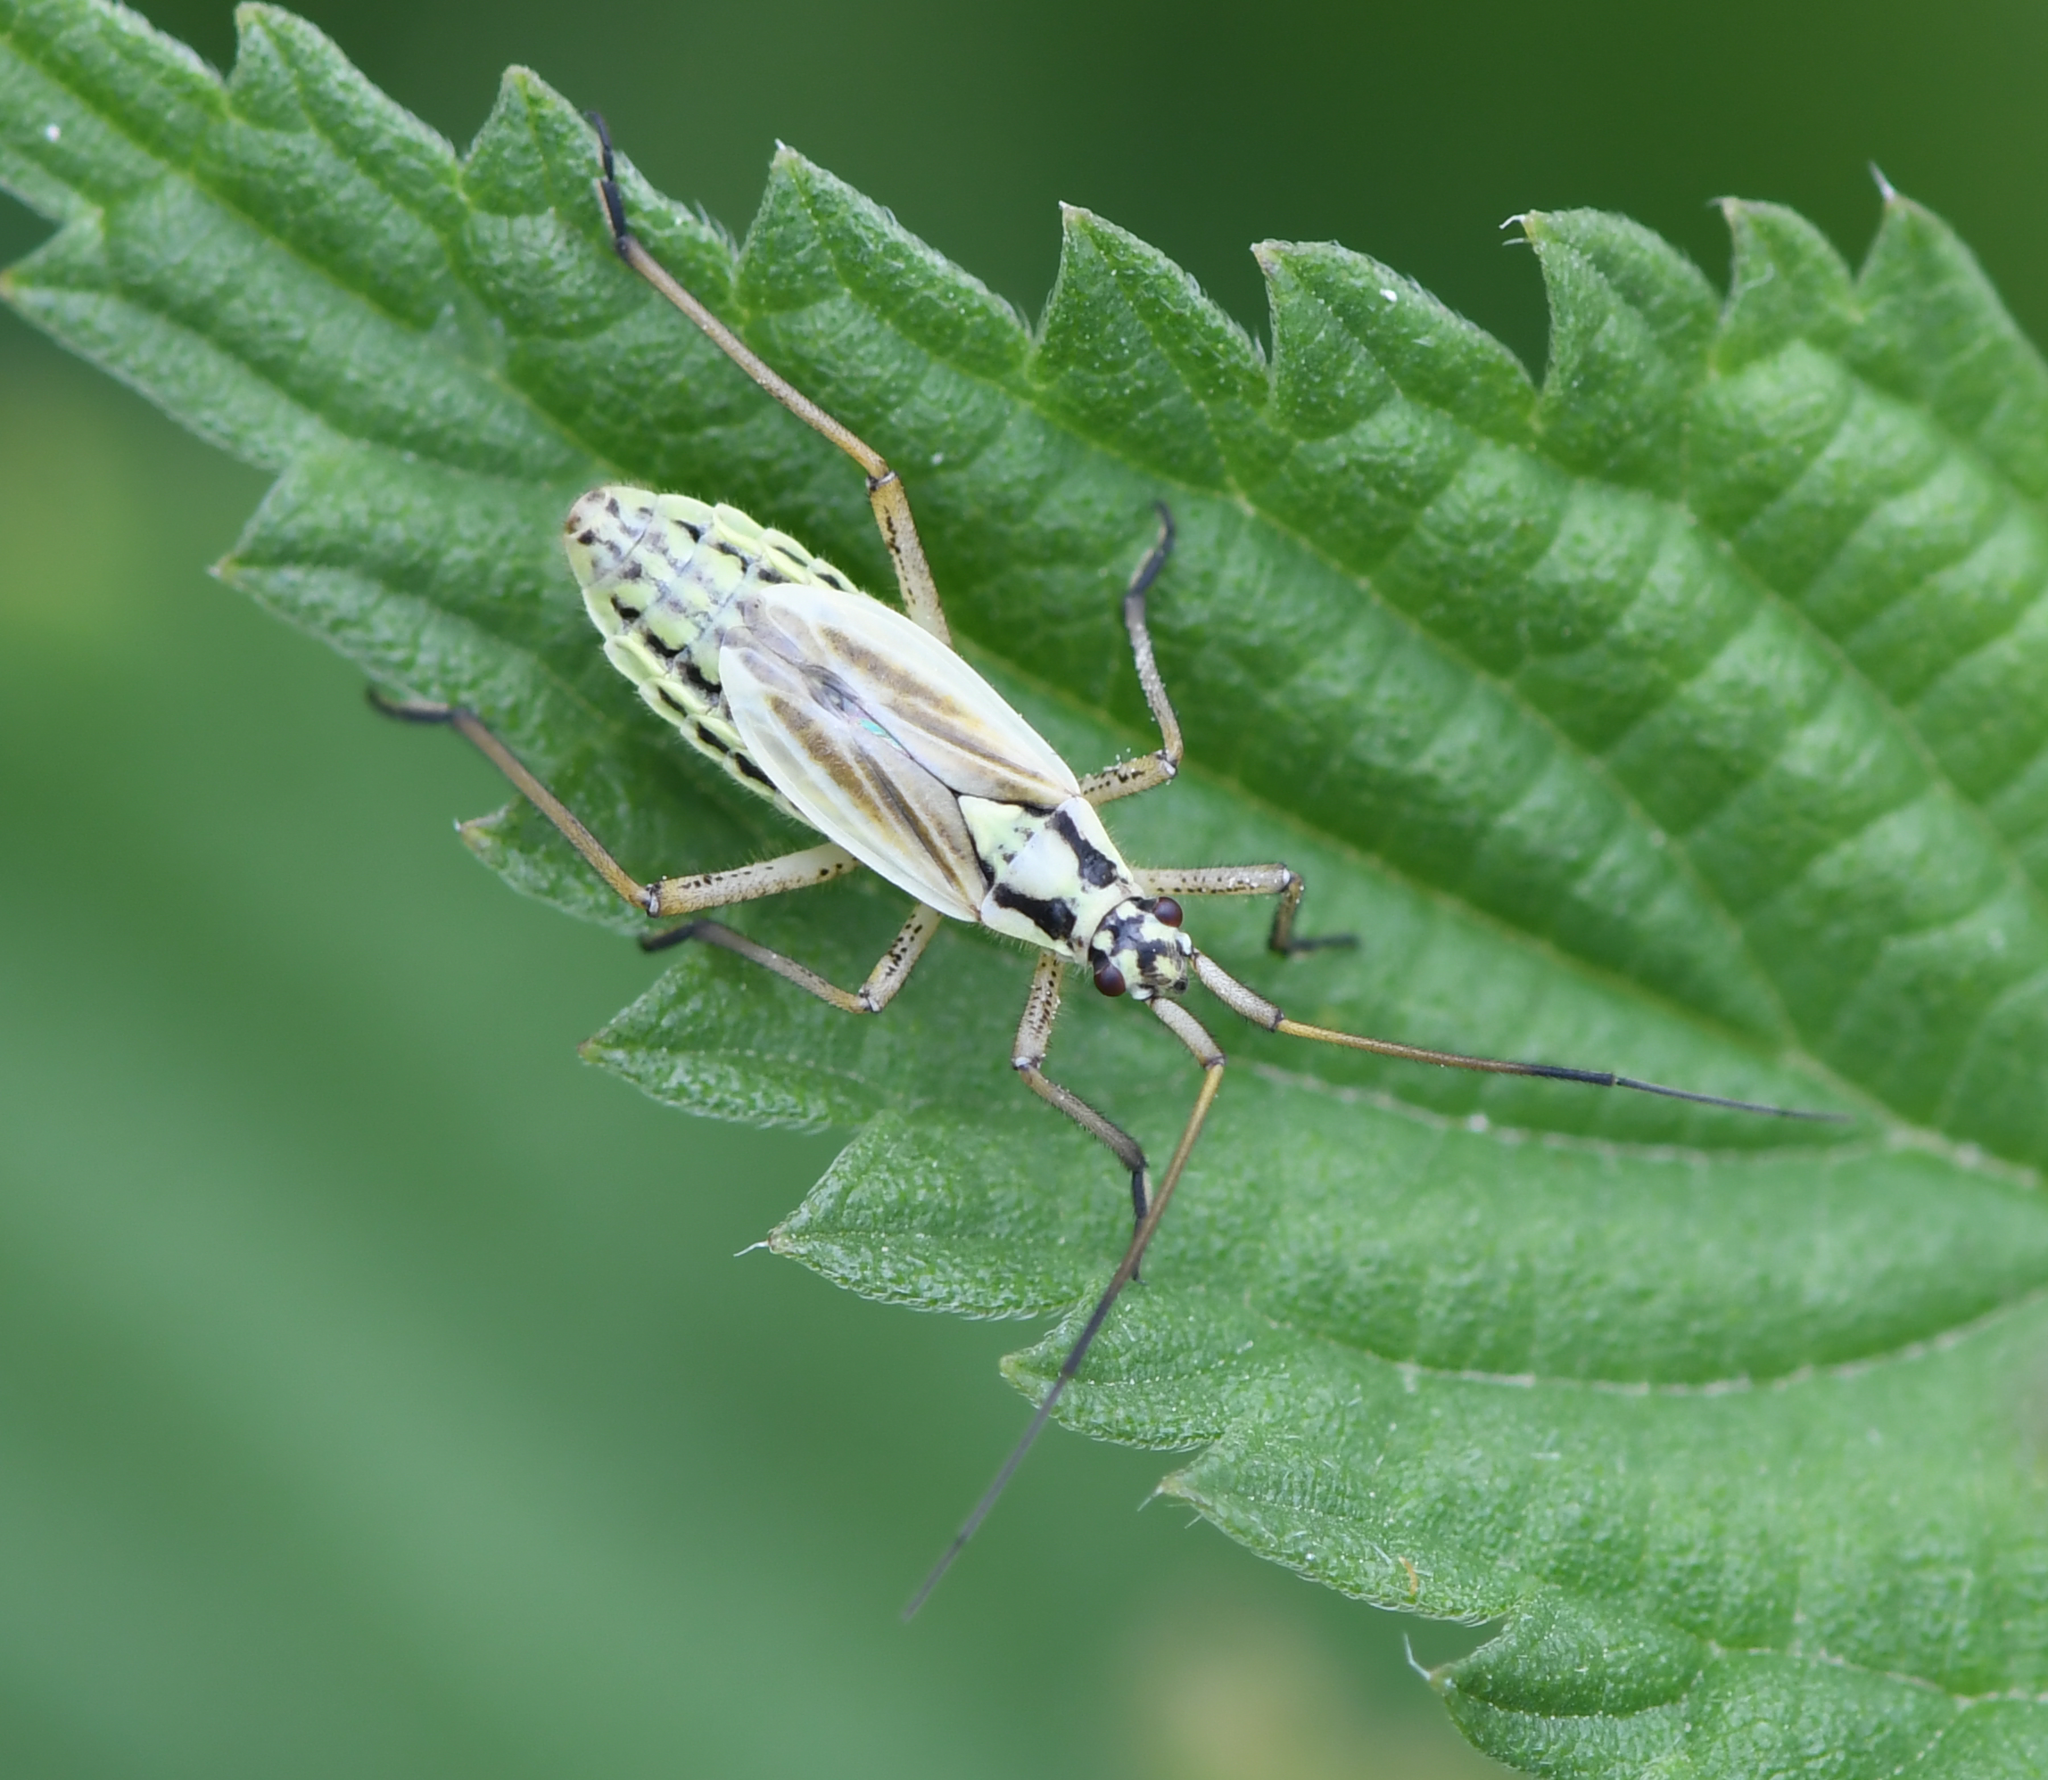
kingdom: Animalia
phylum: Arthropoda
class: Insecta
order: Hemiptera
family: Miridae
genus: Leptopterna
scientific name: Leptopterna dolabrata
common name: Meadow plant bug
